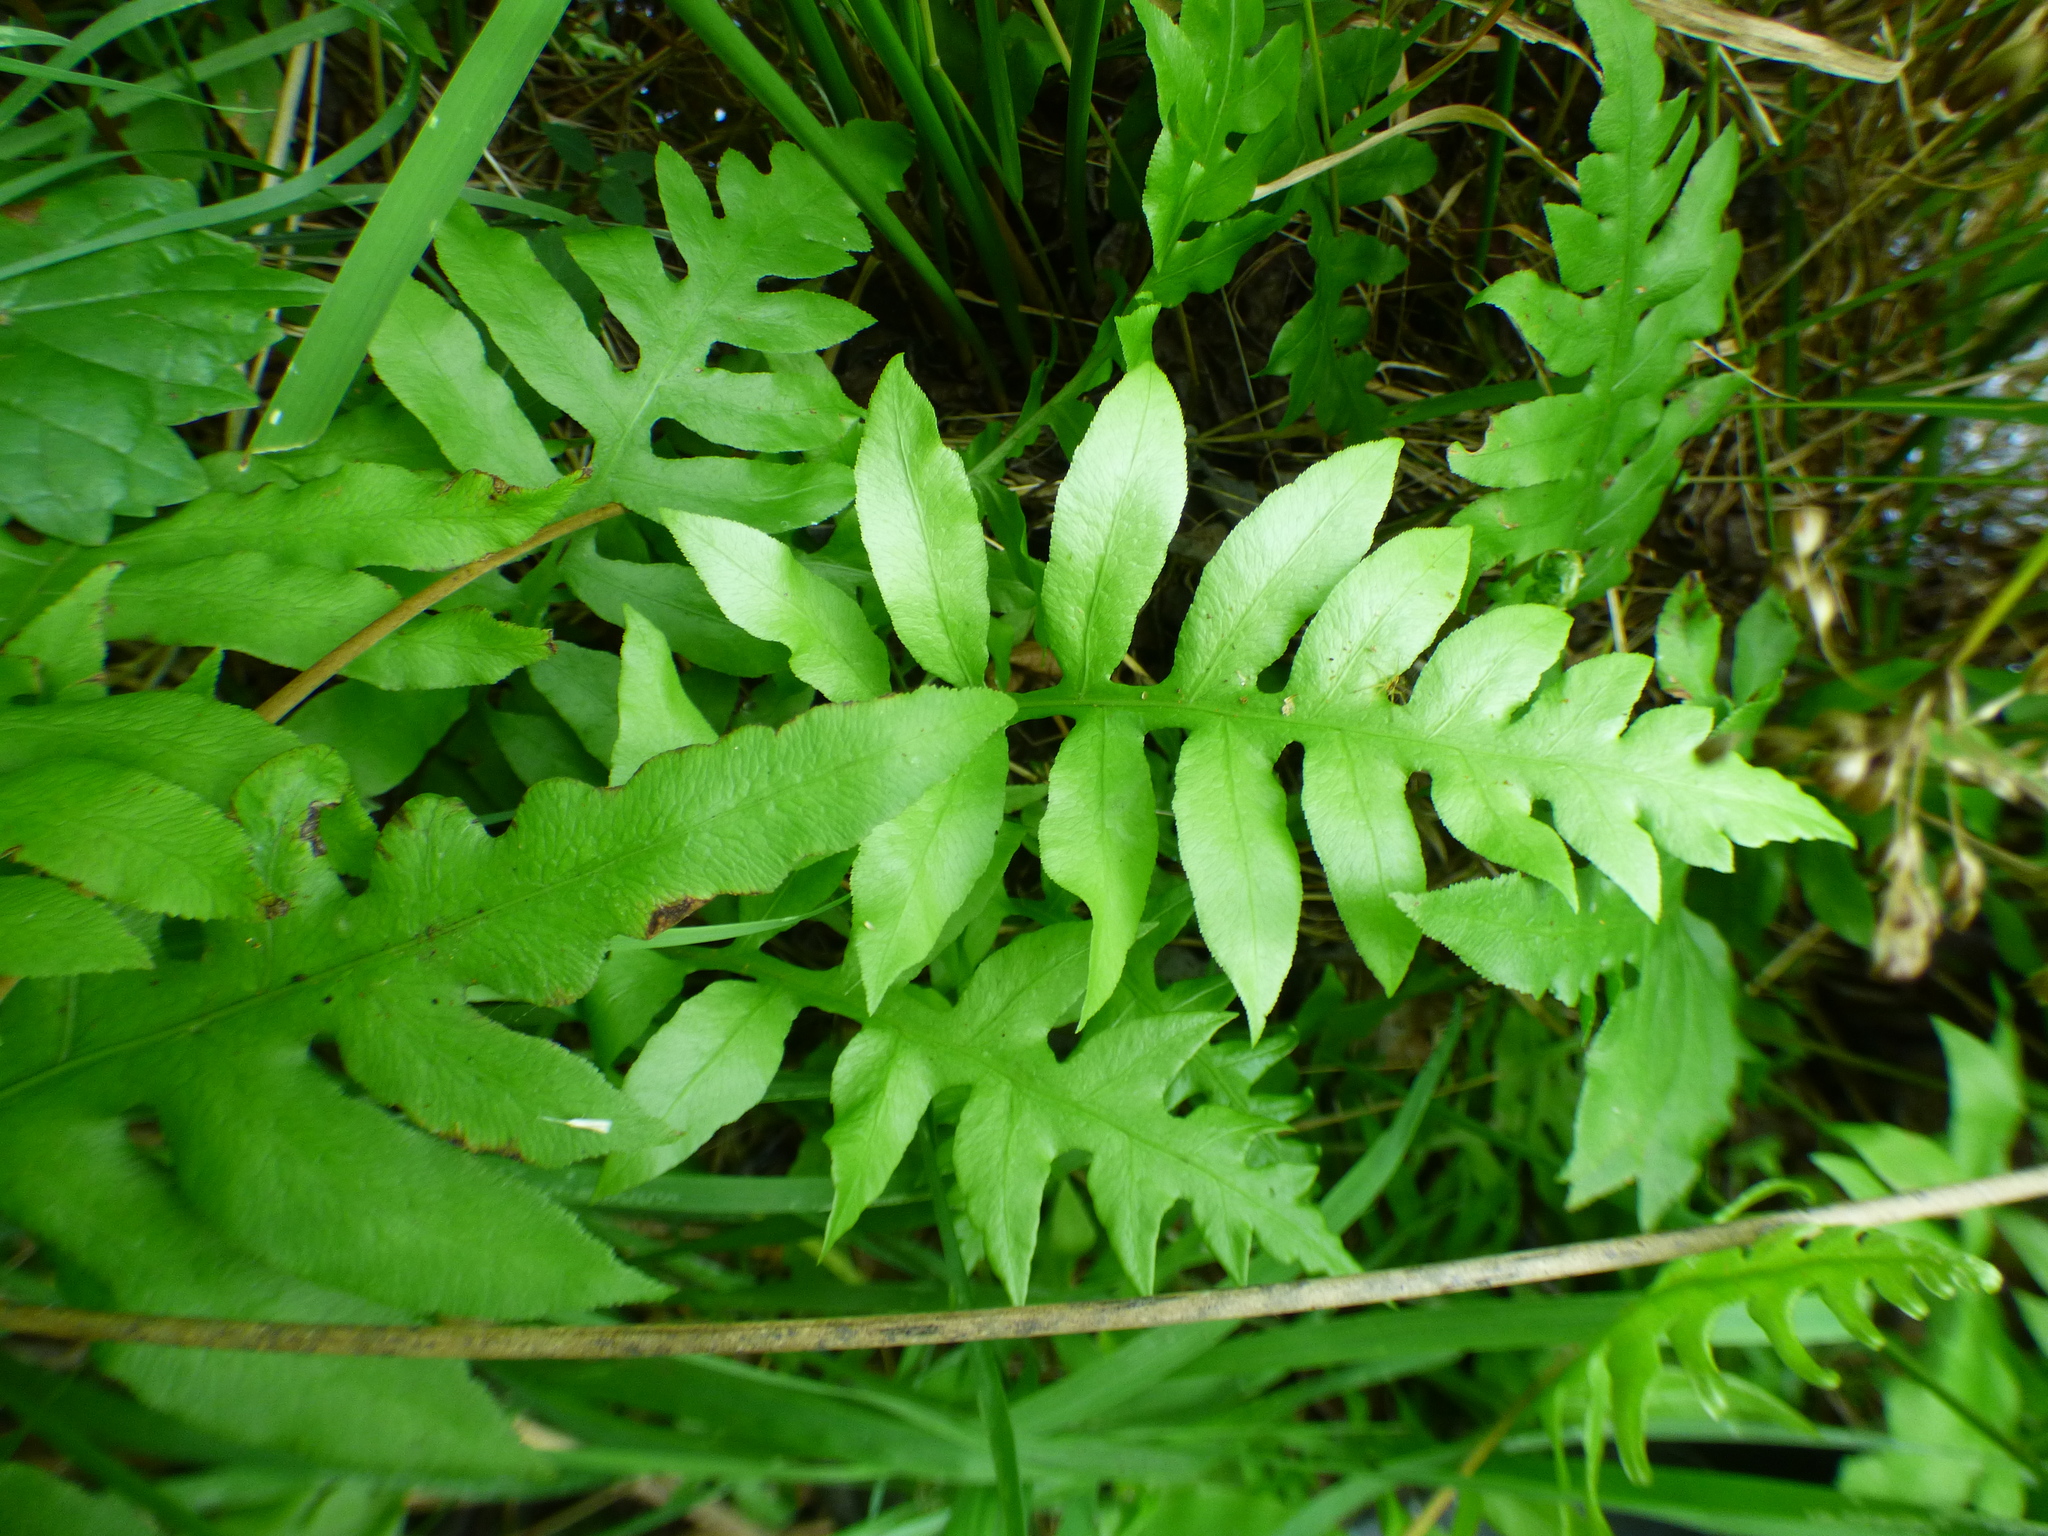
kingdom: Plantae
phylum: Tracheophyta
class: Polypodiopsida
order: Polypodiales
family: Blechnaceae
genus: Lorinseria
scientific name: Lorinseria areolata
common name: Dwarf chain fern
